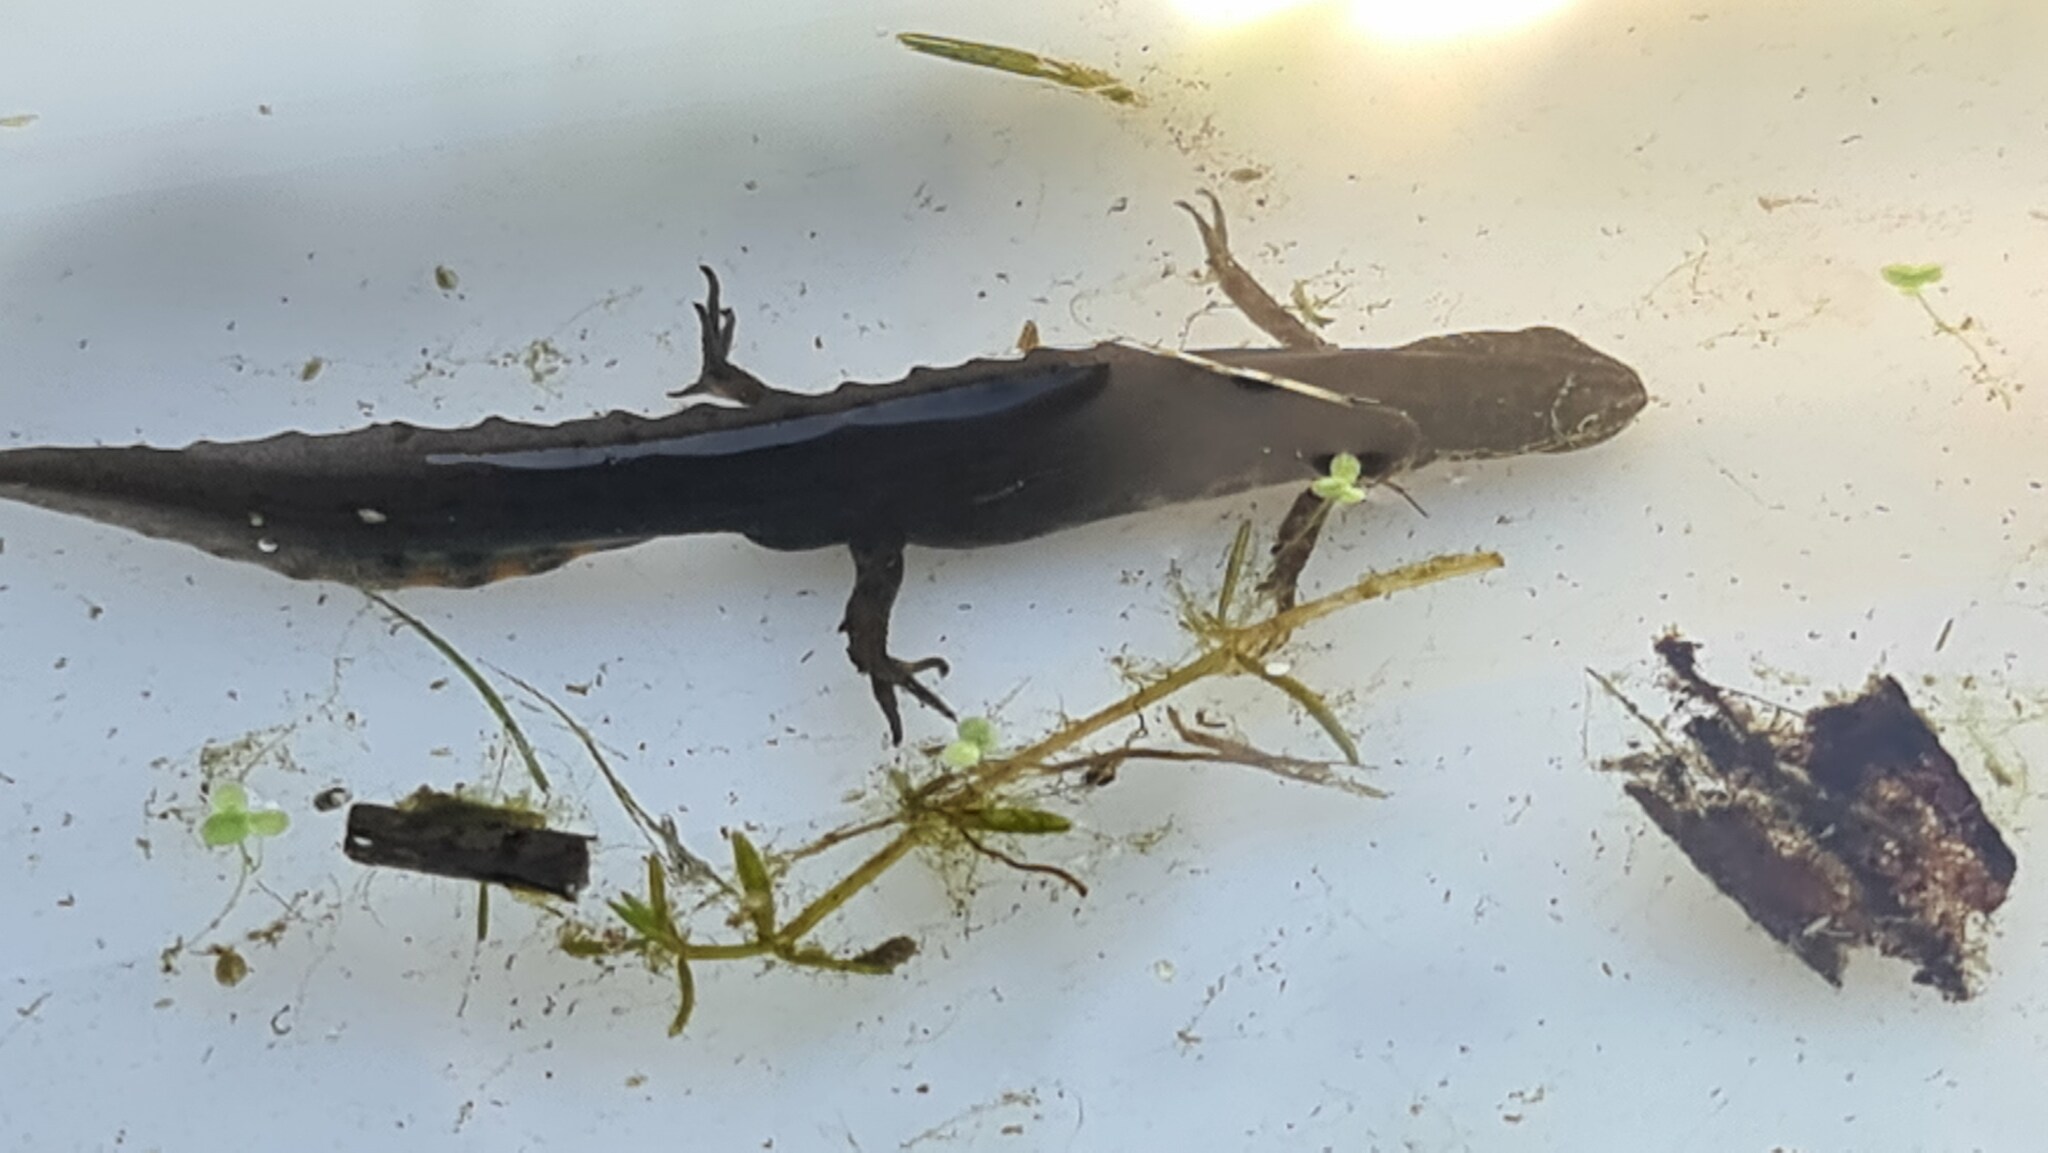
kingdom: Animalia
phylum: Chordata
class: Amphibia
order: Caudata
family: Salamandridae
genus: Lissotriton
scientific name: Lissotriton vulgaris
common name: Smooth newt
